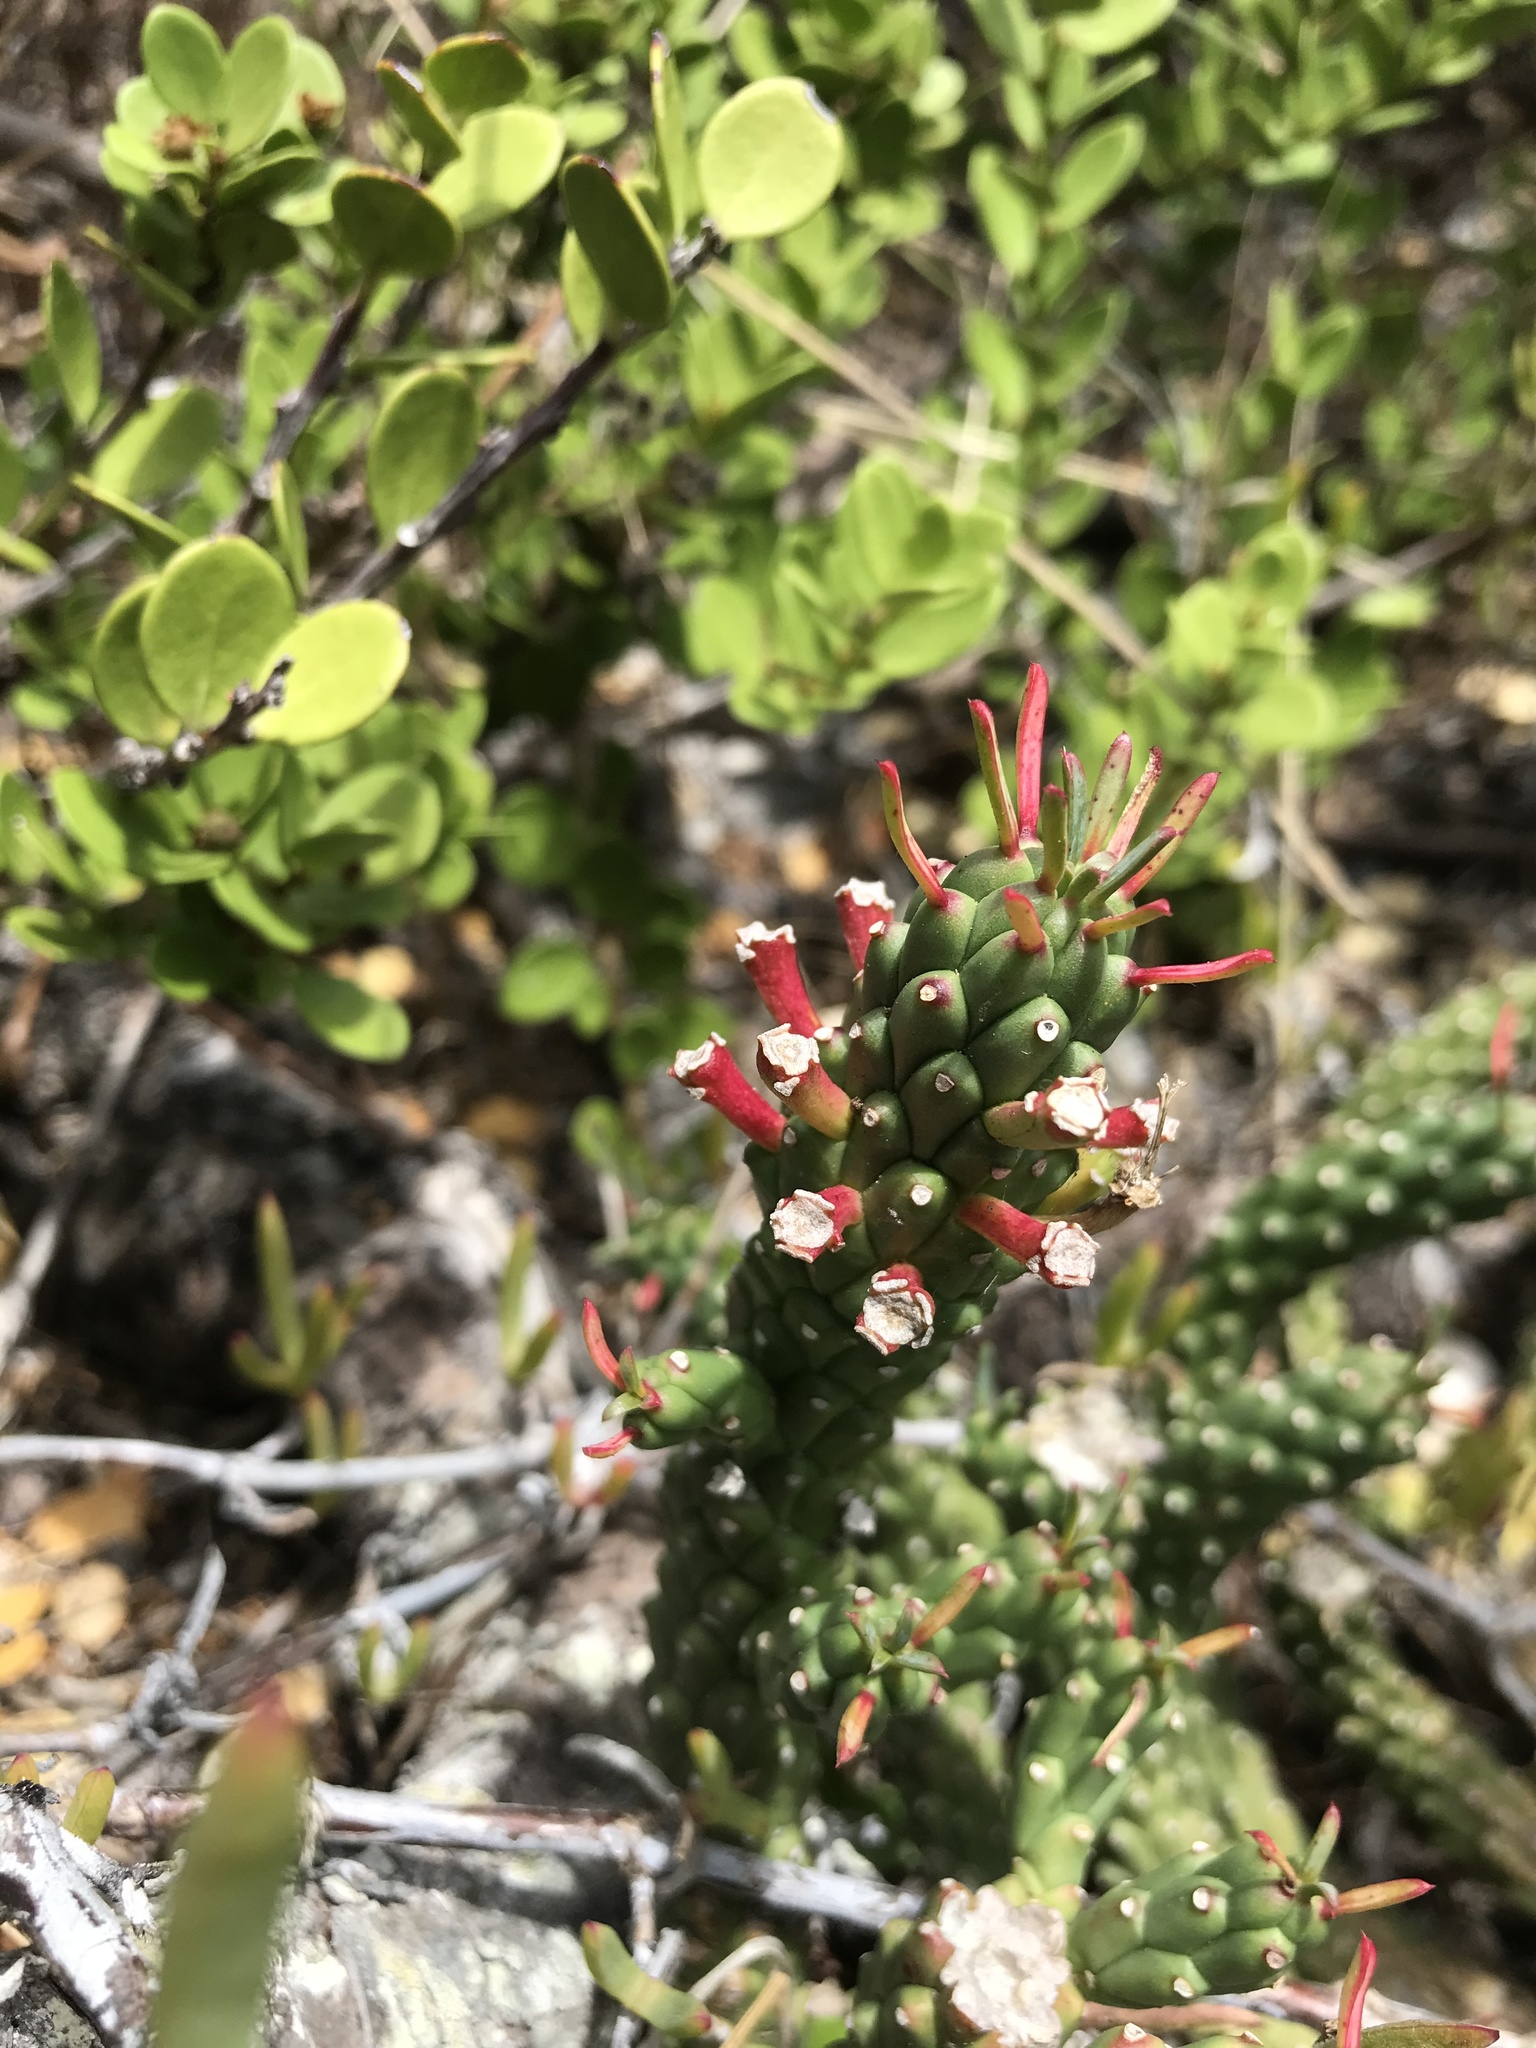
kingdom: Plantae
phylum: Tracheophyta
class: Magnoliopsida
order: Malpighiales
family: Euphorbiaceae
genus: Euphorbia
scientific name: Euphorbia caput-medusae
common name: Medusa's-head
